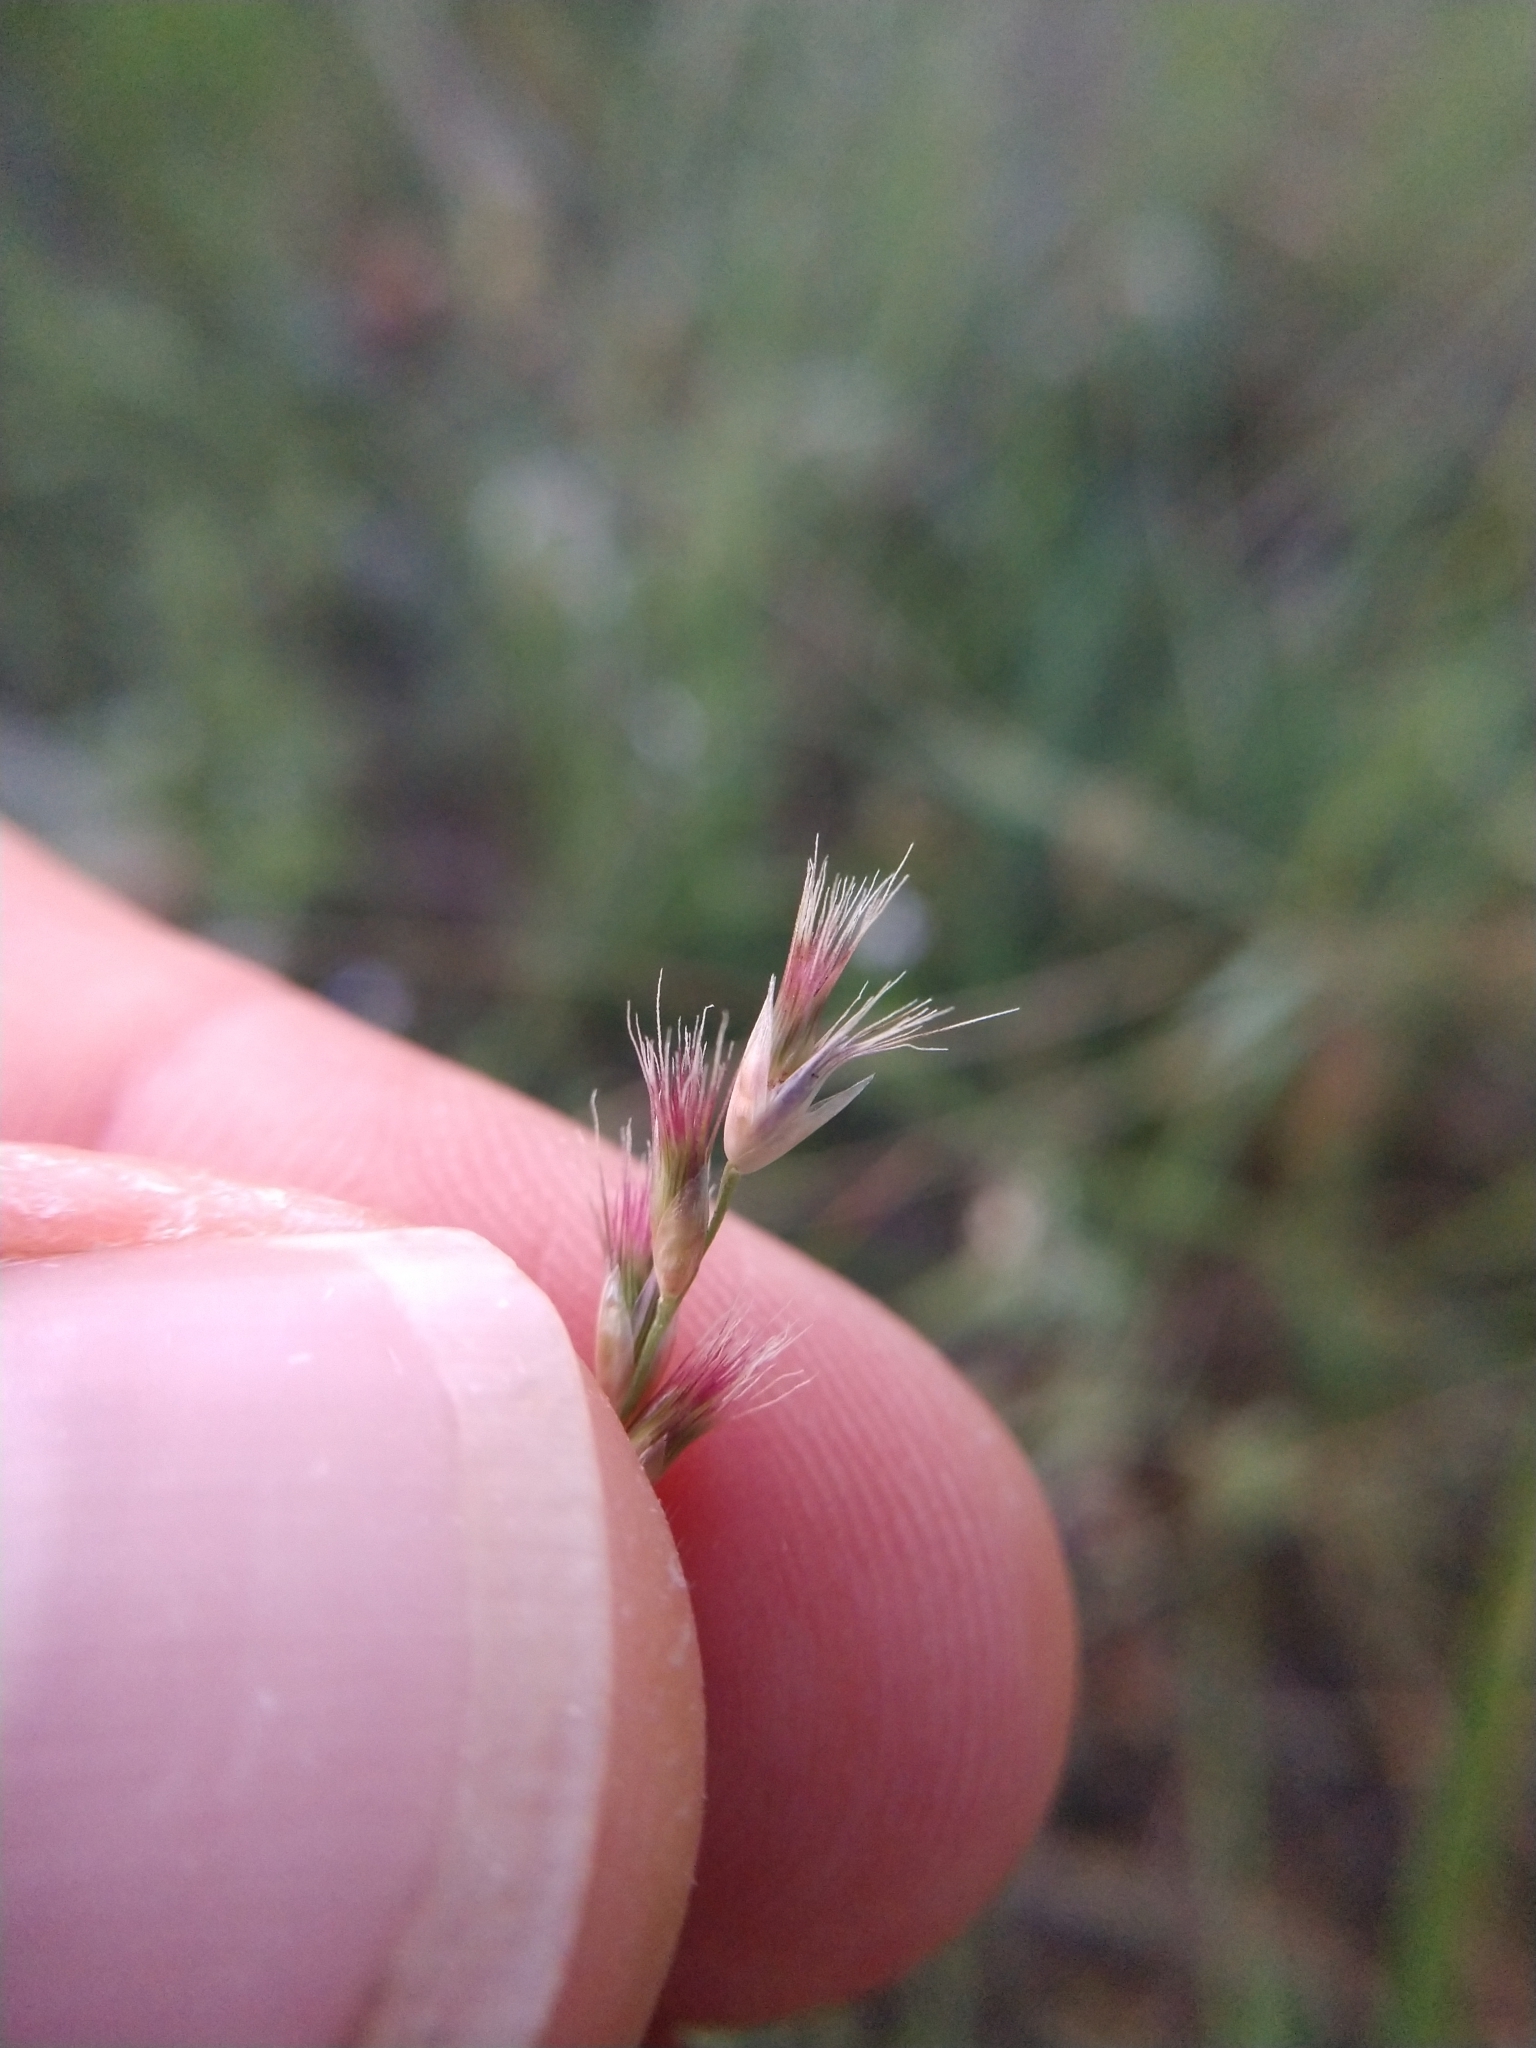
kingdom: Plantae
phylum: Tracheophyta
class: Liliopsida
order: Poales
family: Poaceae
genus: Pappophorum
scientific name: Pappophorum bicolor
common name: Pink pappus grass
